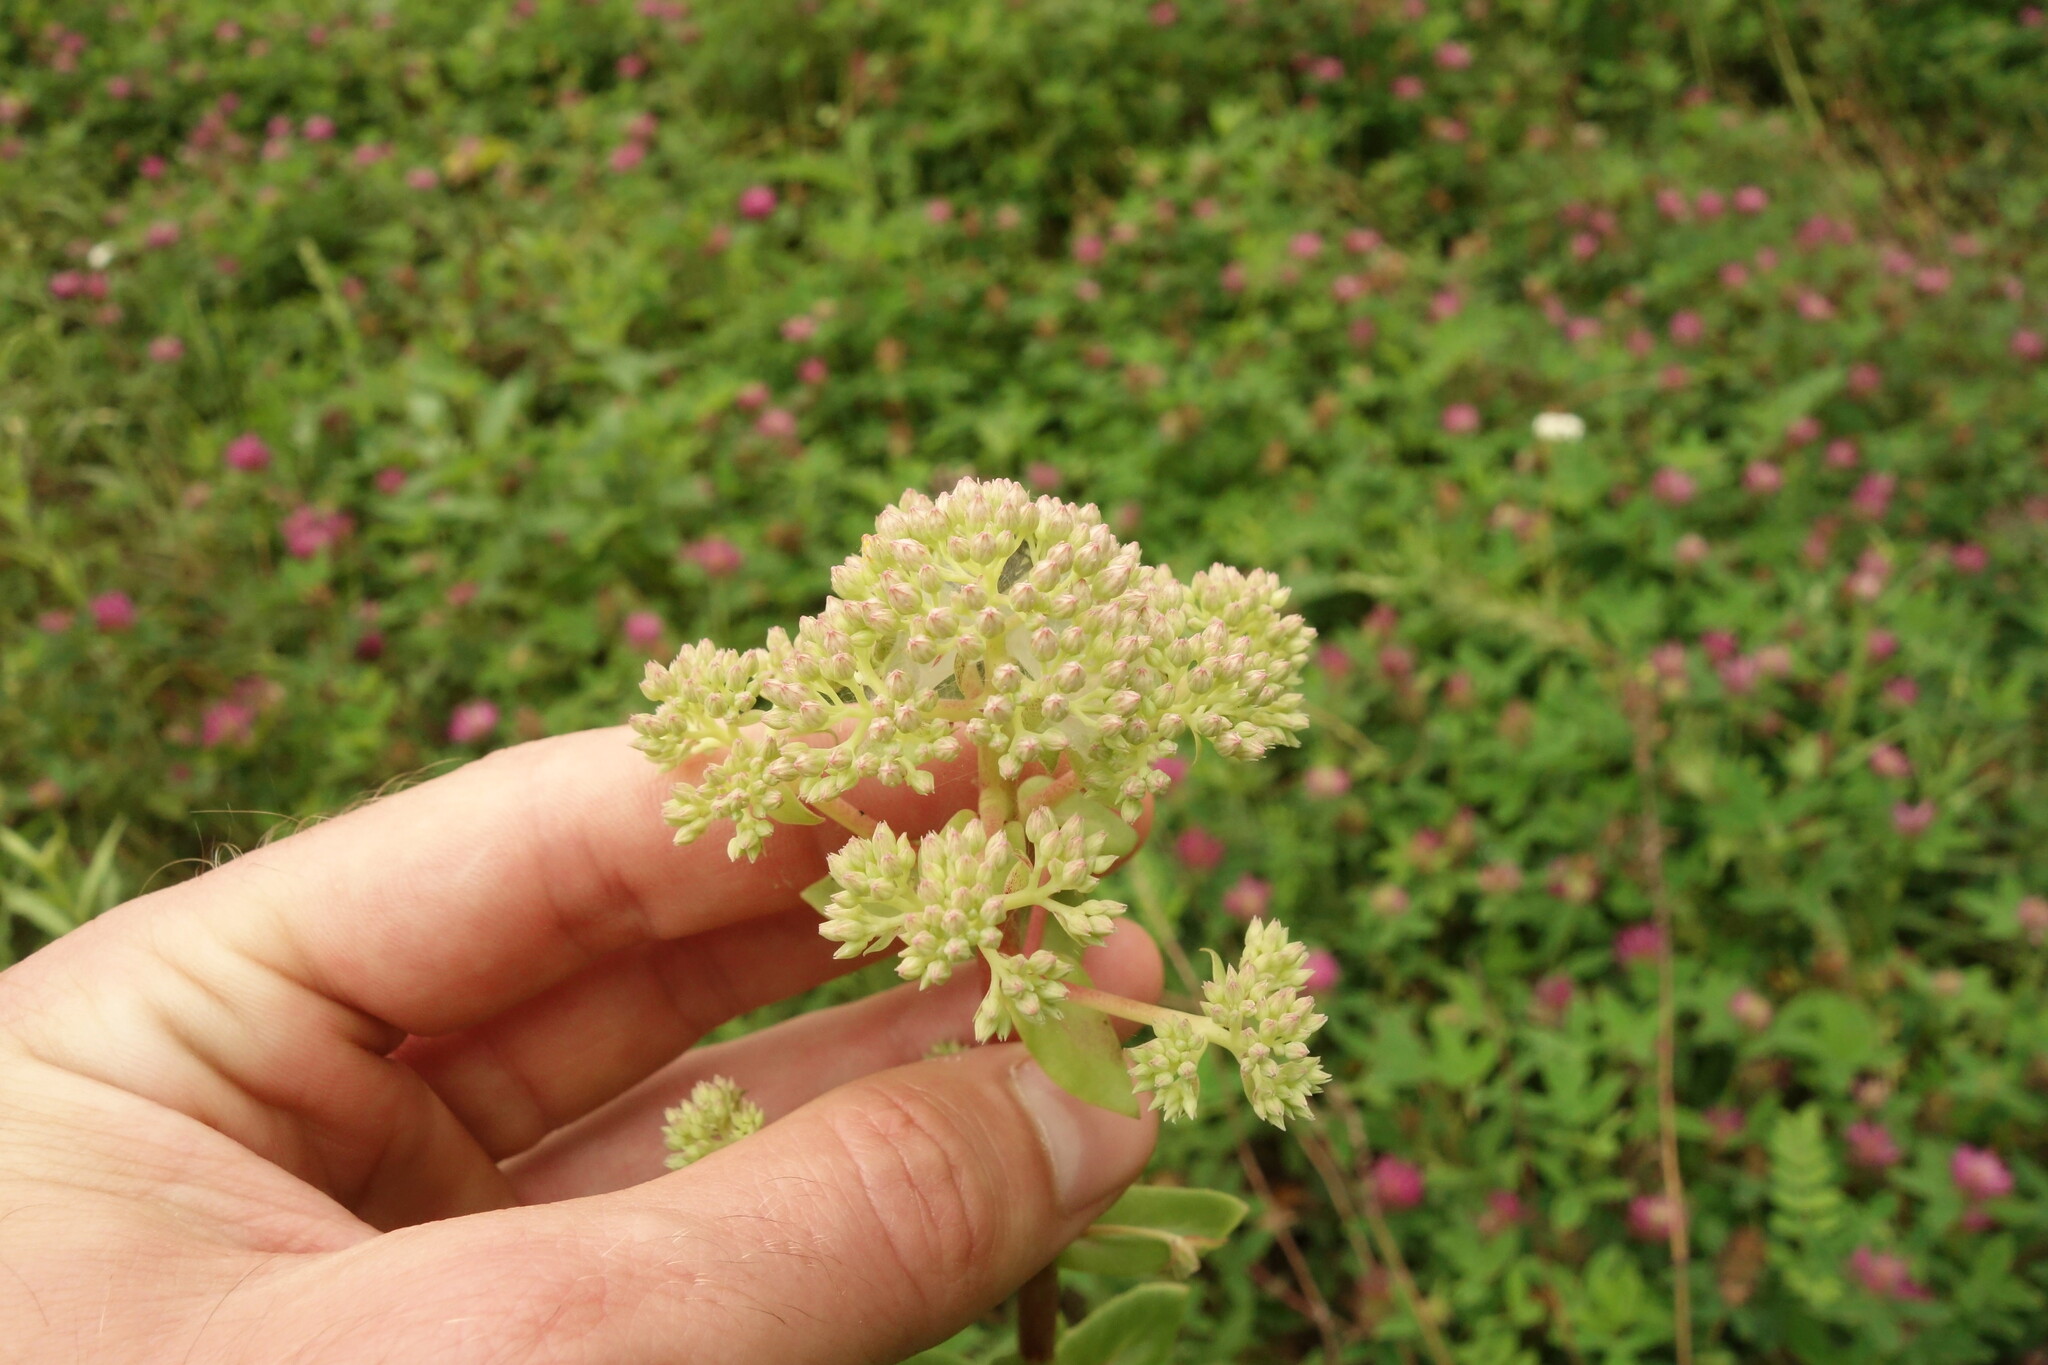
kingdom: Plantae
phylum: Tracheophyta
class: Magnoliopsida
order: Saxifragales
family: Crassulaceae
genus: Hylotelephium
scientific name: Hylotelephium telephium
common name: Live-forever
